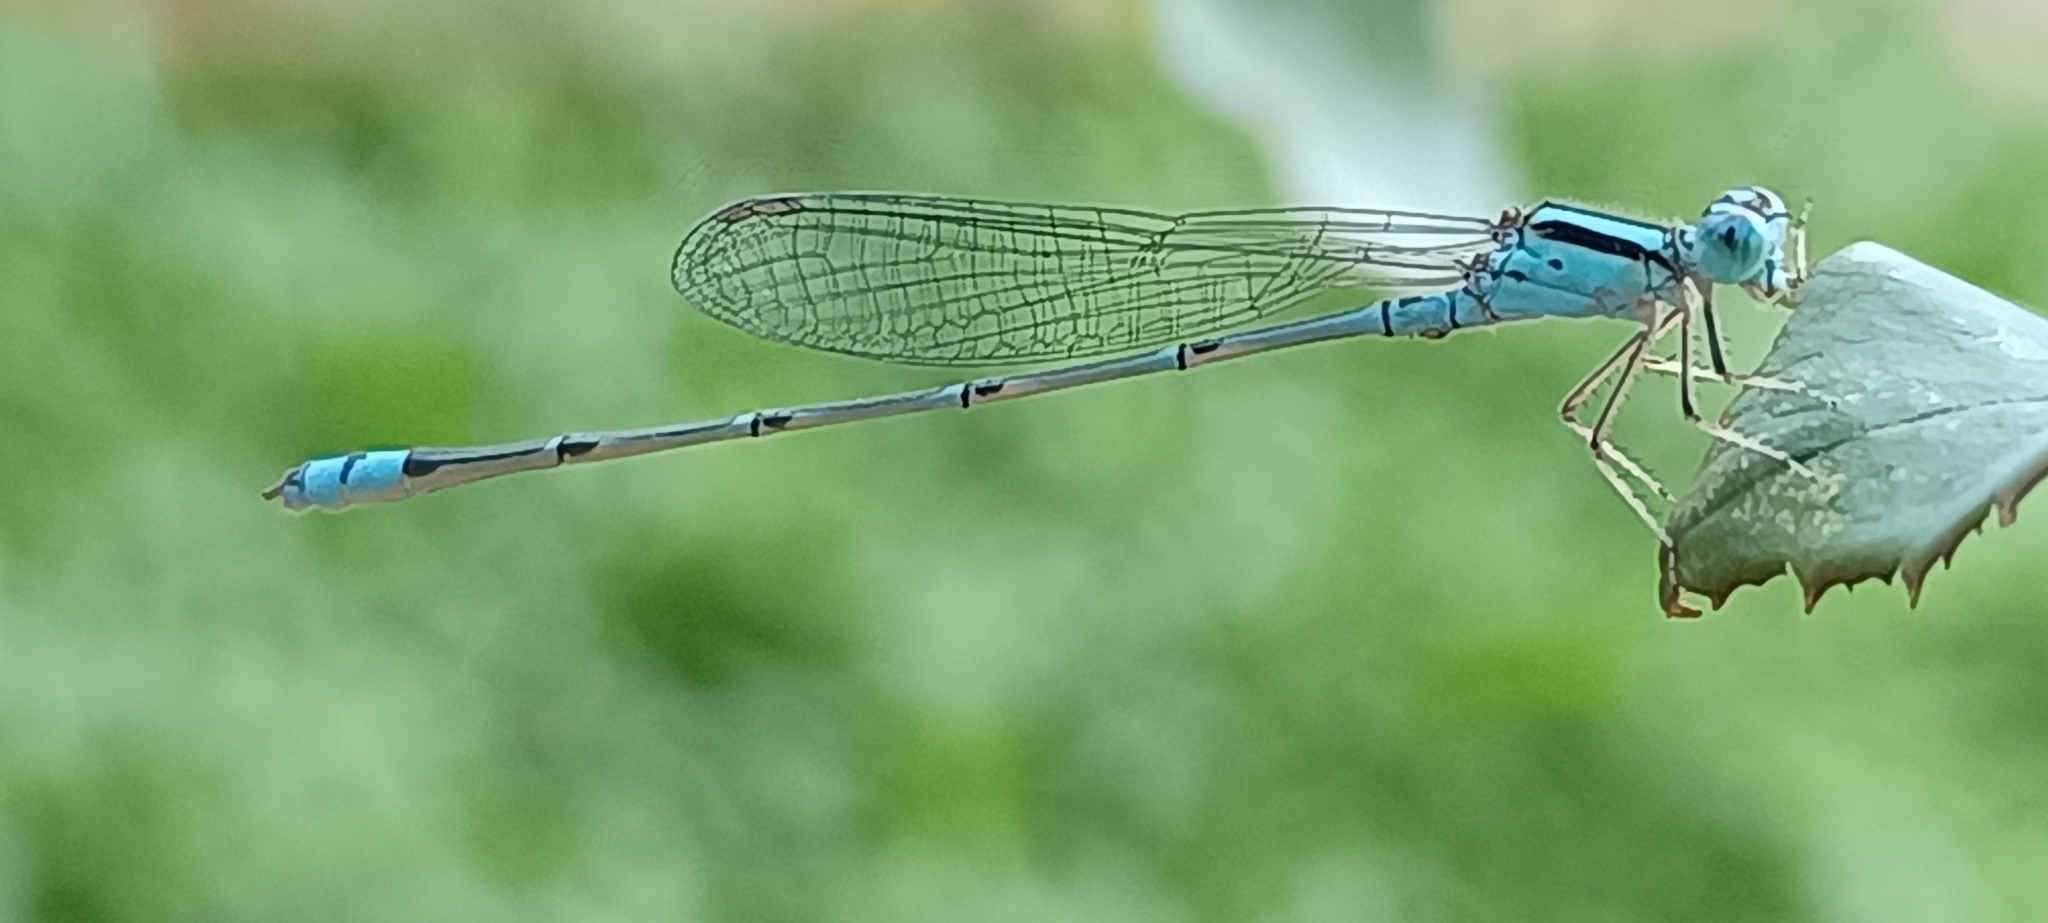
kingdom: Animalia
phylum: Arthropoda
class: Insecta
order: Odonata
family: Coenagrionidae
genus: Pseudagrion
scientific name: Pseudagrion microcephalum
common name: Blue riverdamsel
